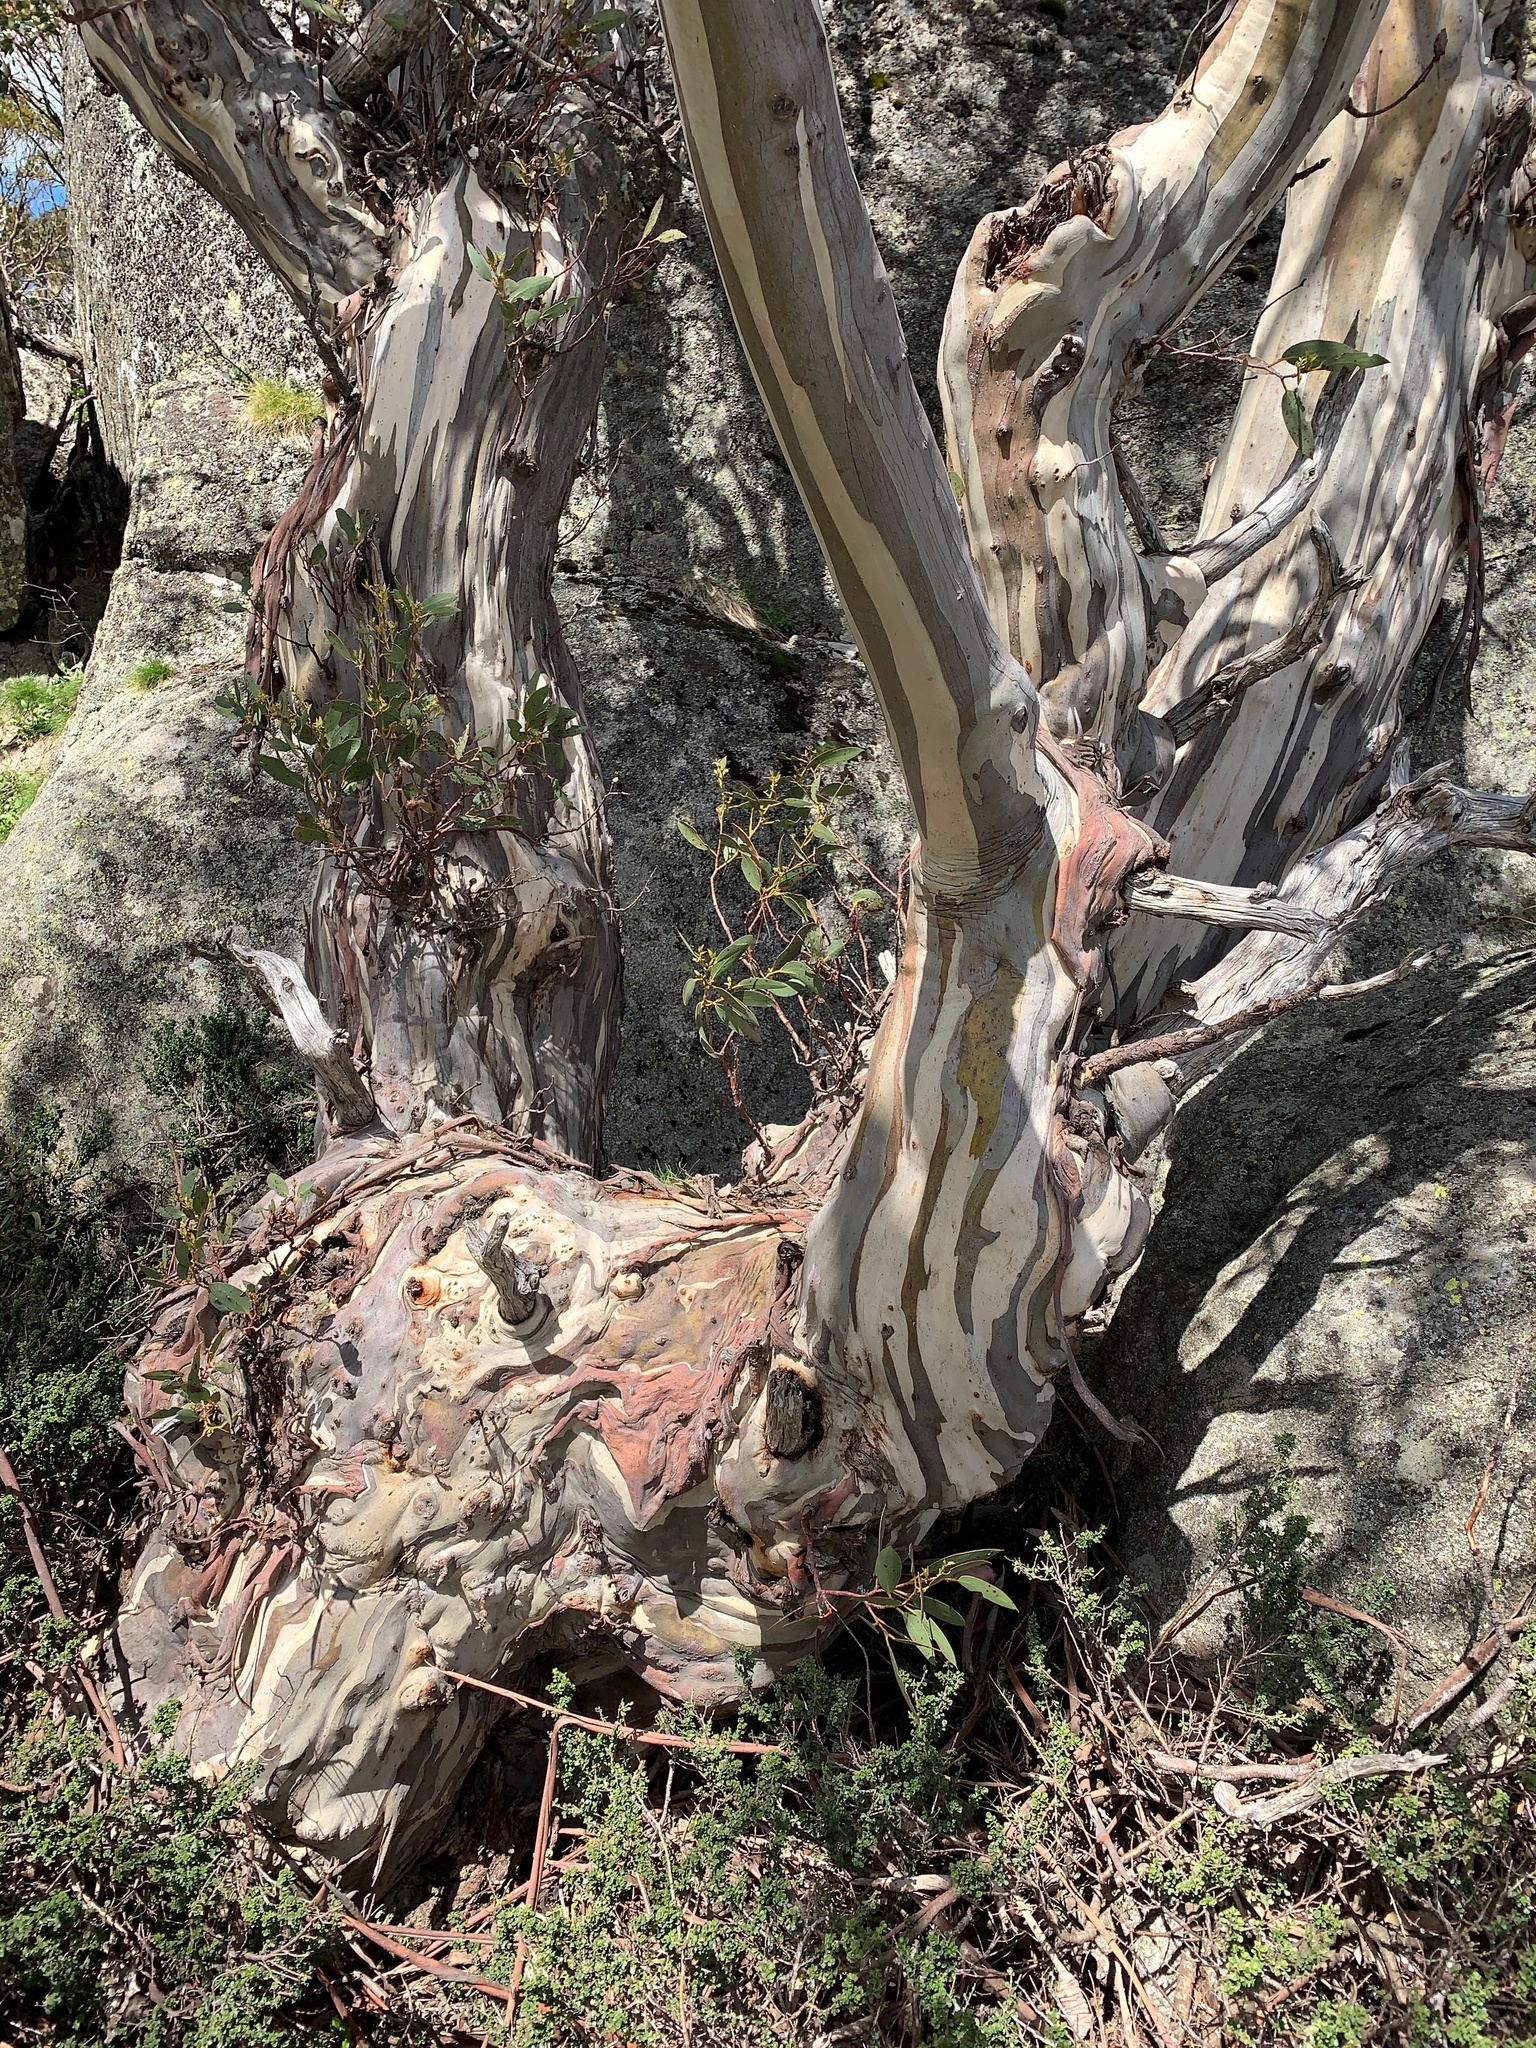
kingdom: Plantae
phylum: Tracheophyta
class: Magnoliopsida
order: Myrtales
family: Myrtaceae
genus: Eucalyptus
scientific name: Eucalyptus pauciflora
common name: Snow gum
